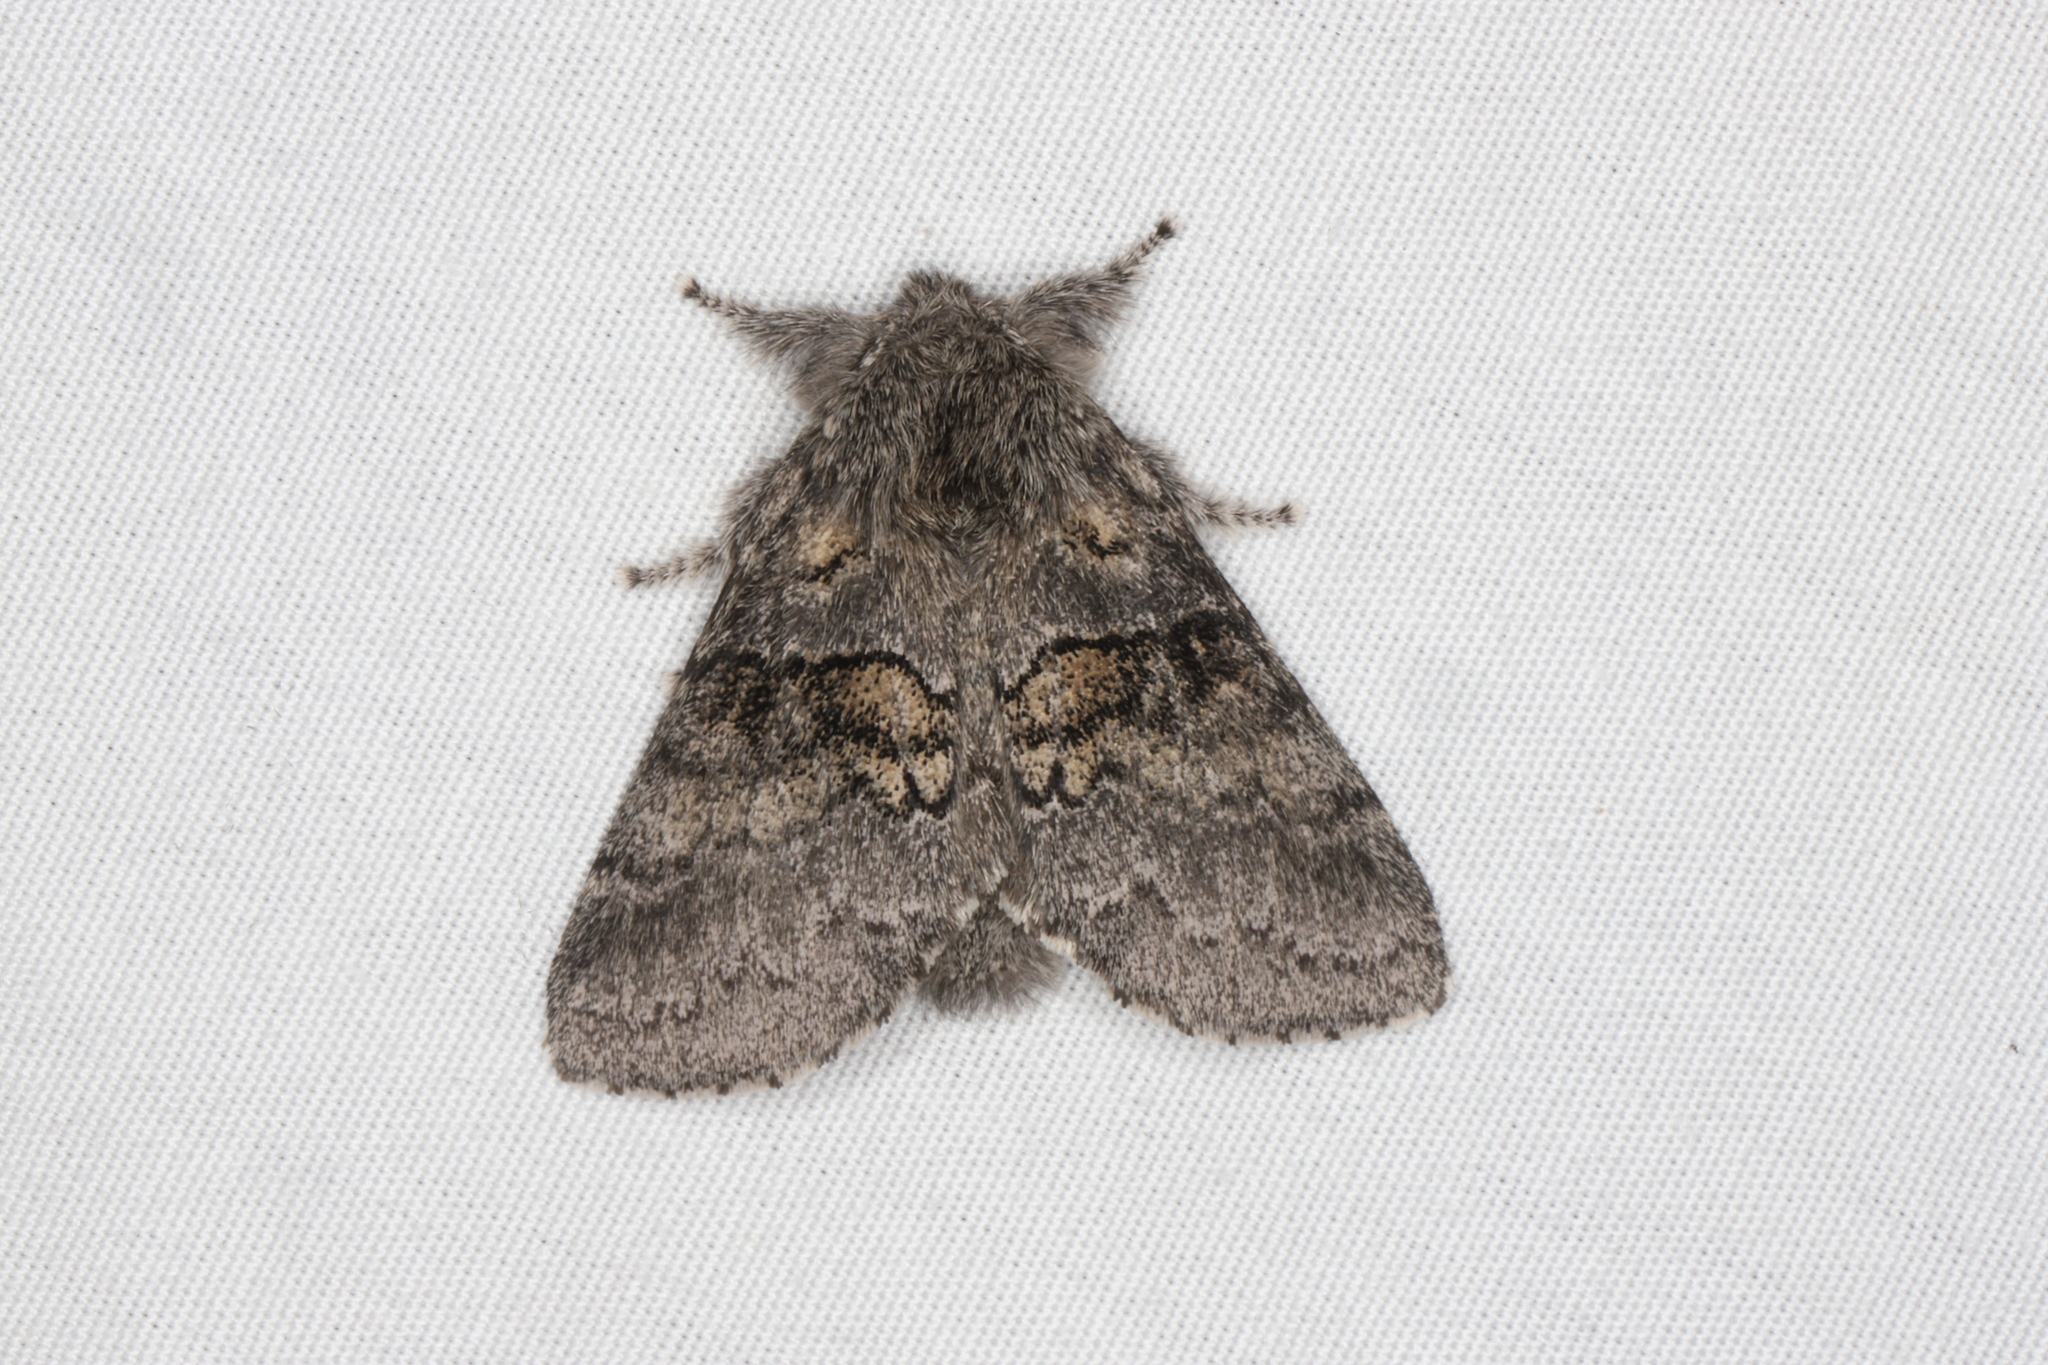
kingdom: Animalia
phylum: Arthropoda
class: Insecta
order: Lepidoptera
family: Notodontidae
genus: Gluphisia
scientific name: Gluphisia septentrionis
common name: Common gluphisia
